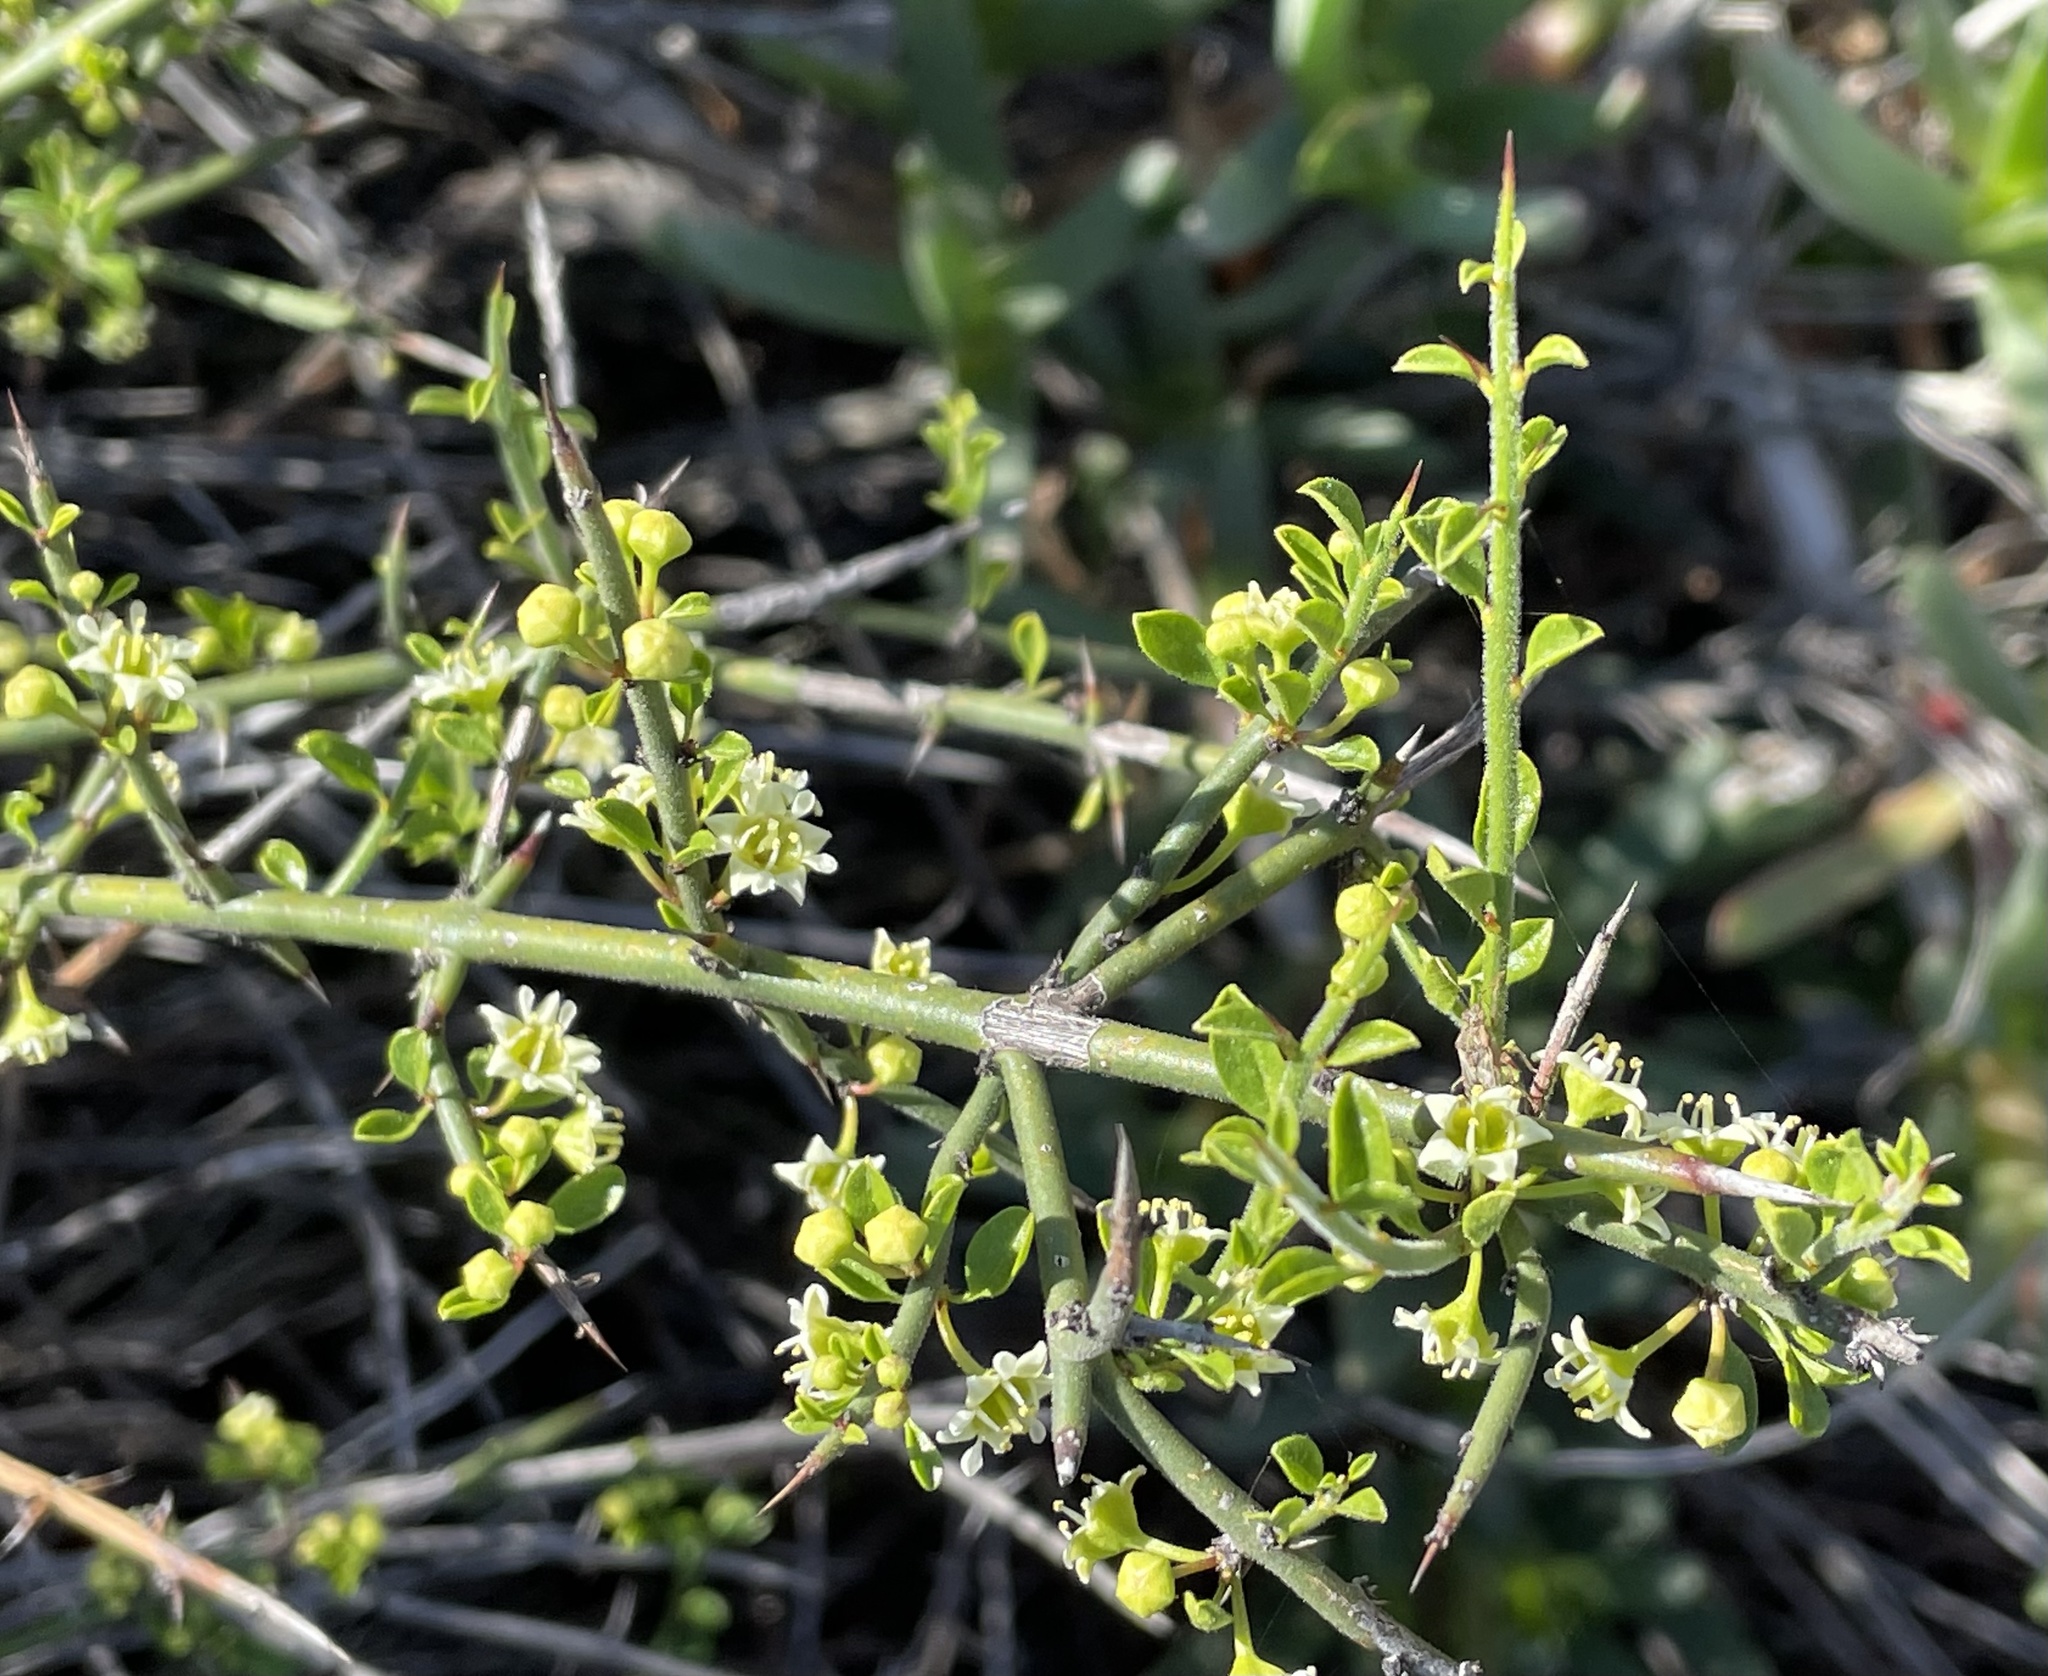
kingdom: Plantae
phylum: Tracheophyta
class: Magnoliopsida
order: Rosales
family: Rhamnaceae
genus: Adolphia
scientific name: Adolphia californica
